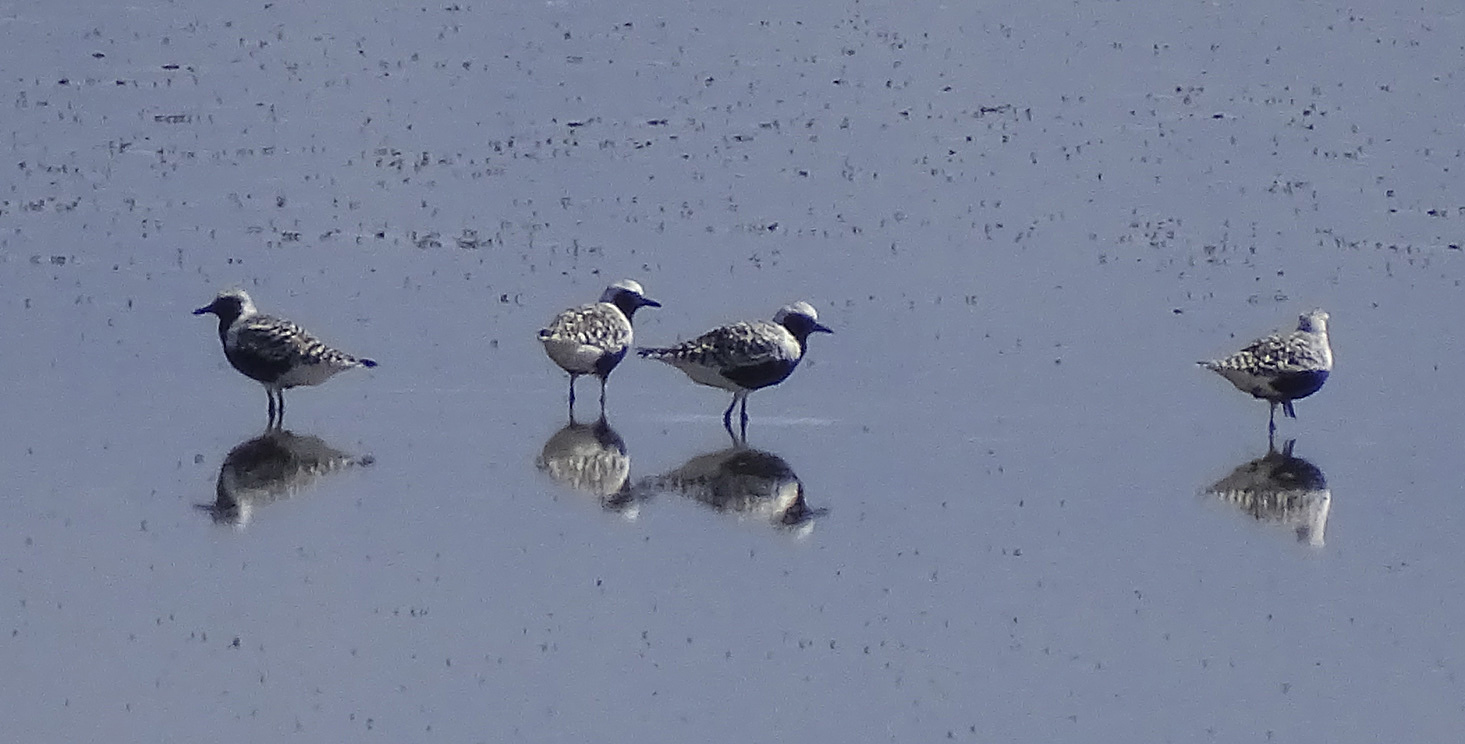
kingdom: Animalia
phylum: Chordata
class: Aves
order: Charadriiformes
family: Charadriidae
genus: Pluvialis
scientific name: Pluvialis squatarola
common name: Grey plover
